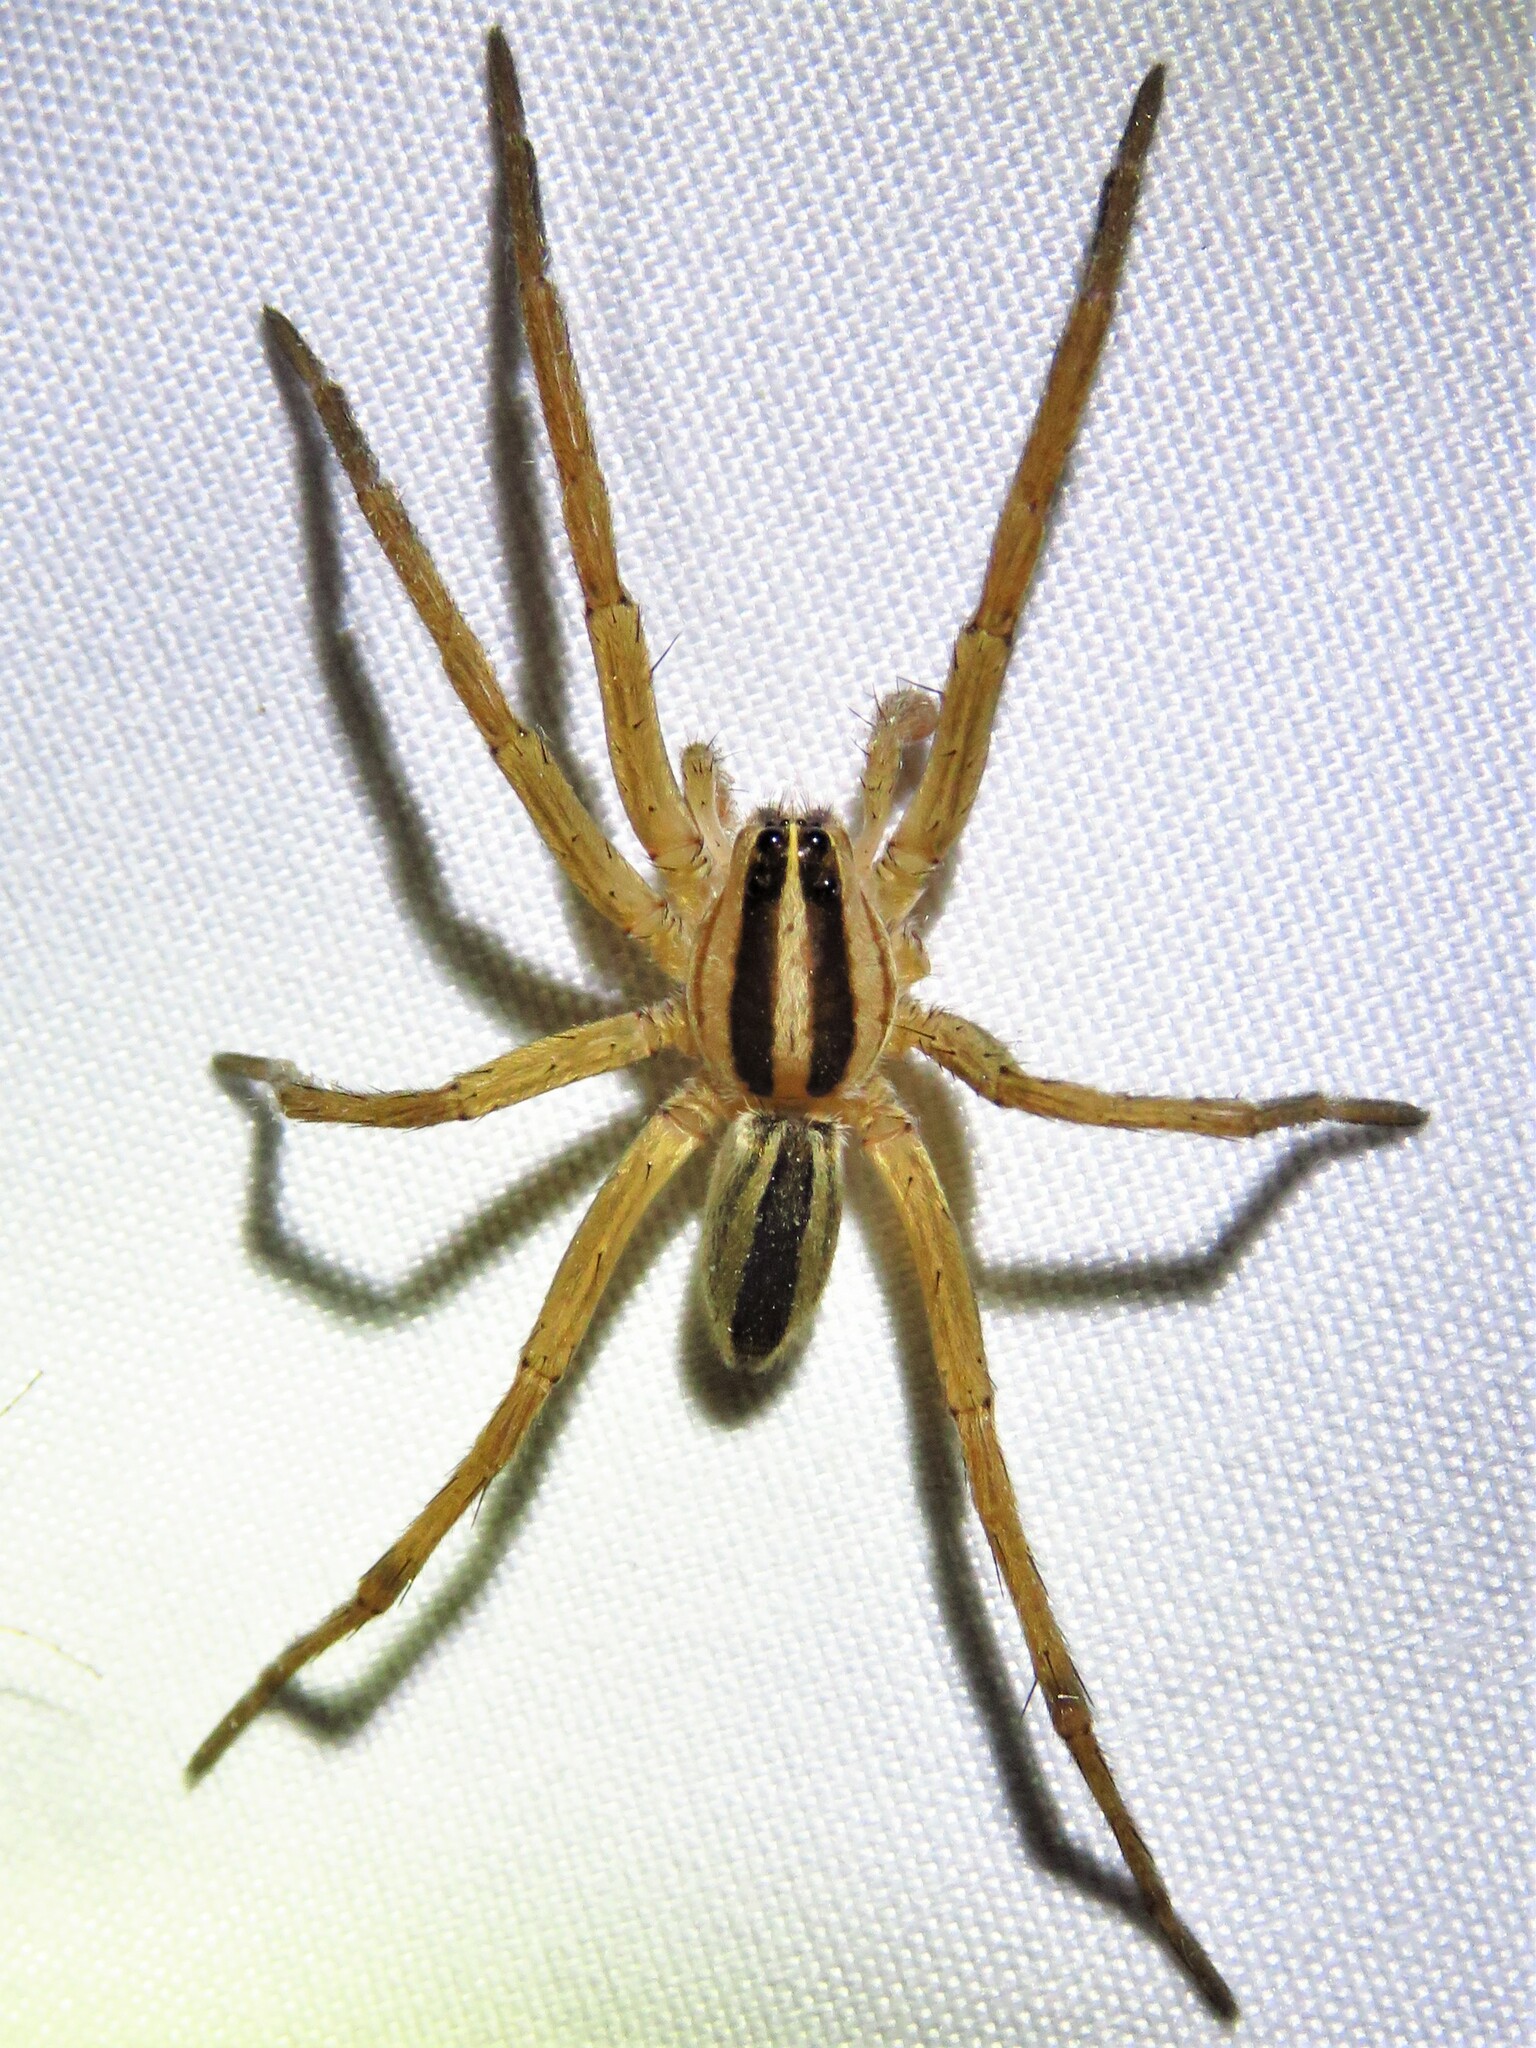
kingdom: Animalia
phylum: Arthropoda
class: Arachnida
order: Araneae
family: Lycosidae
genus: Rabidosa
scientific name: Rabidosa punctulata
